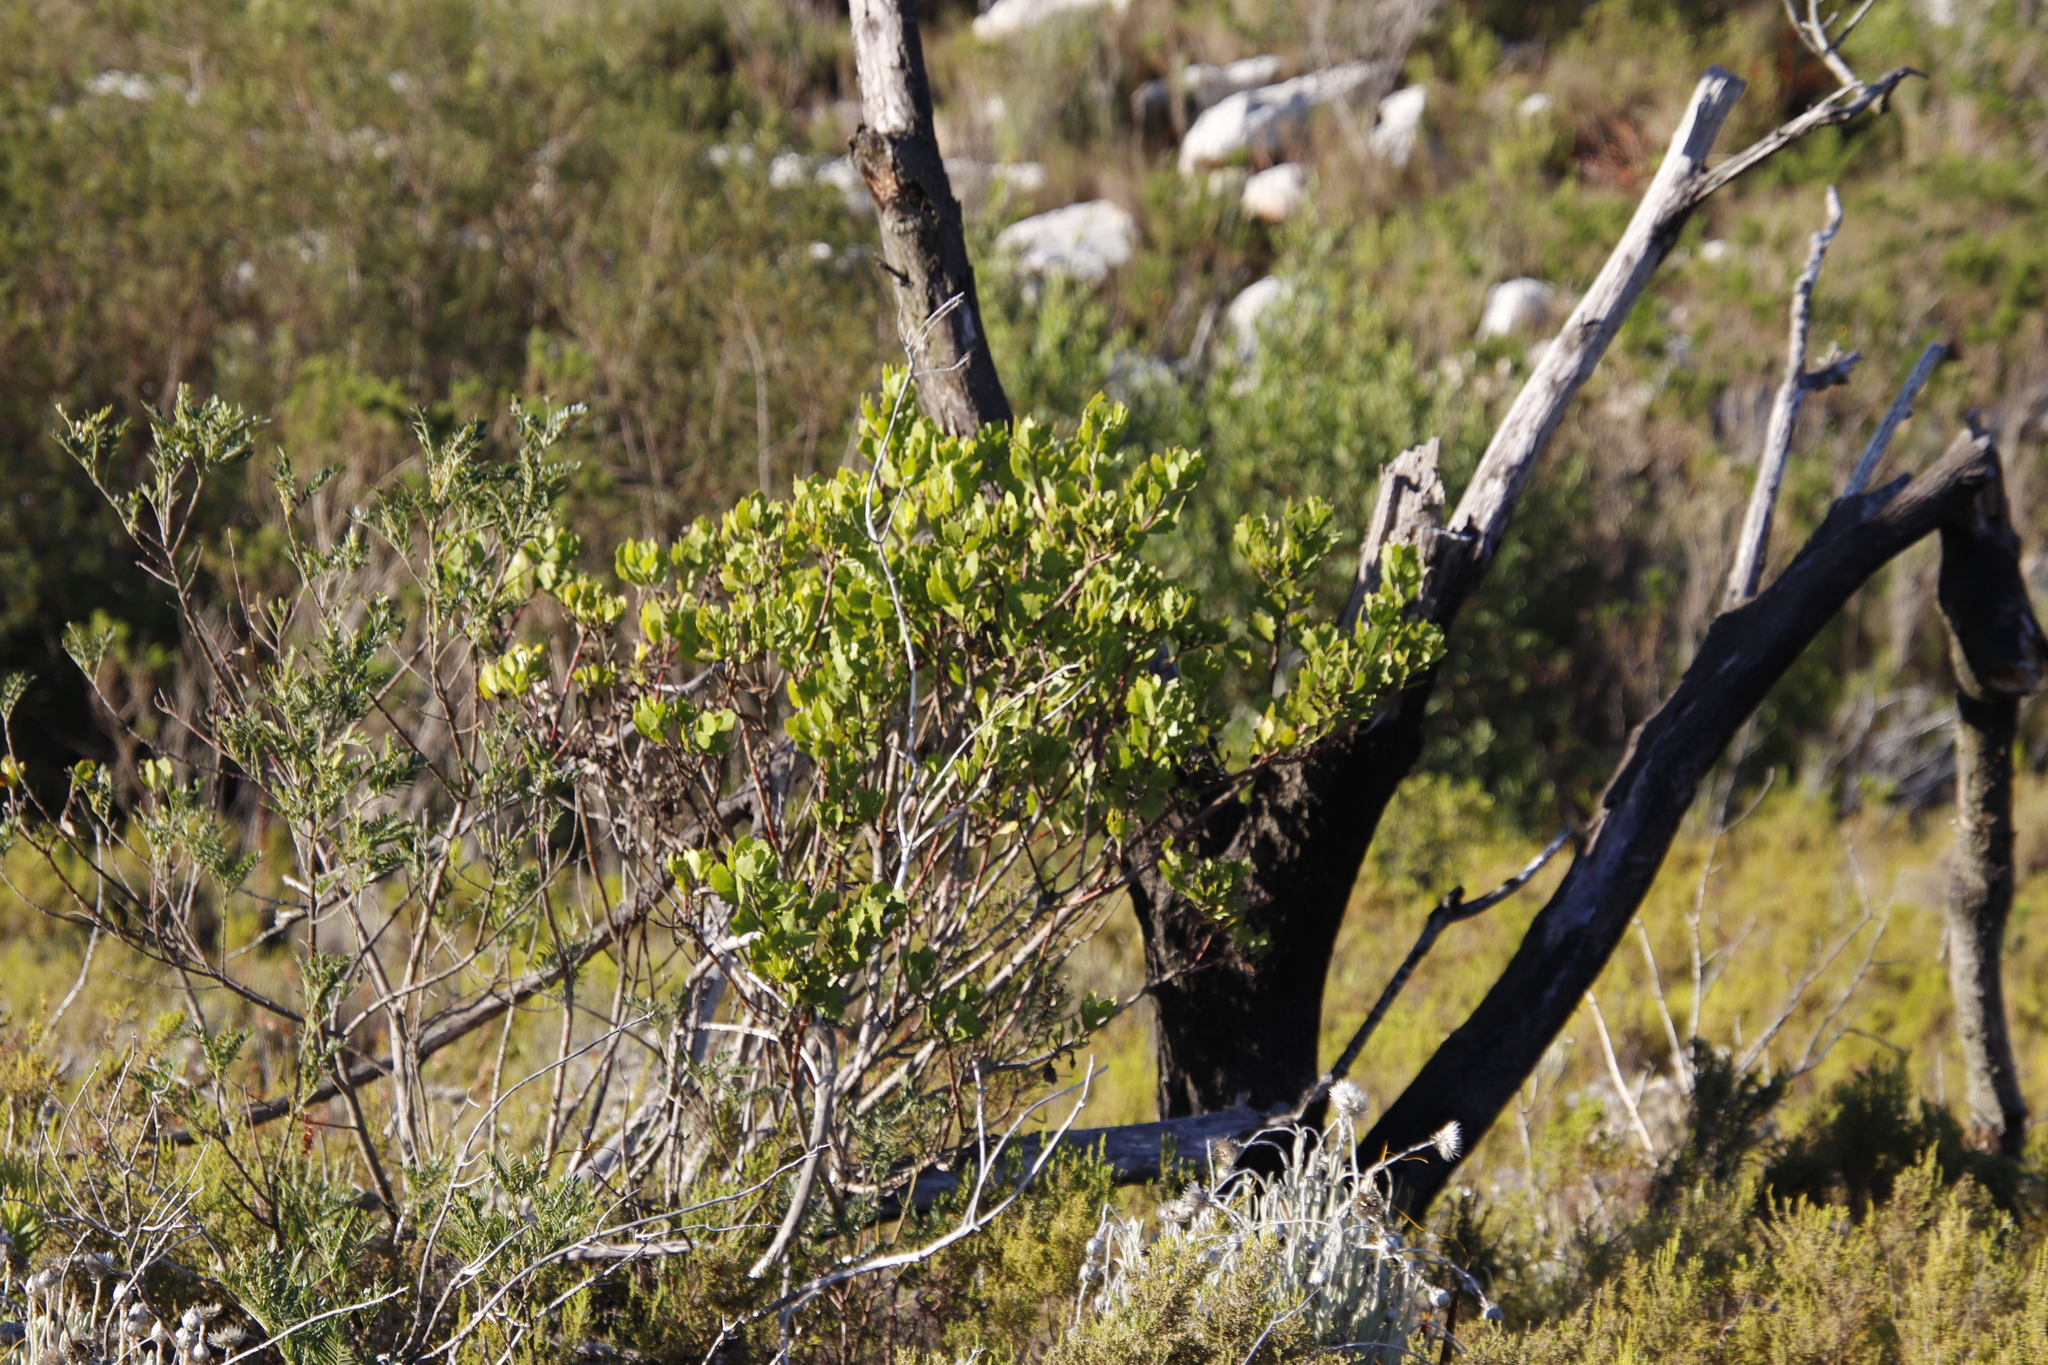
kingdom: Plantae
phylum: Tracheophyta
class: Magnoliopsida
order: Asterales
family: Asteraceae
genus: Osteospermum
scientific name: Osteospermum moniliferum
